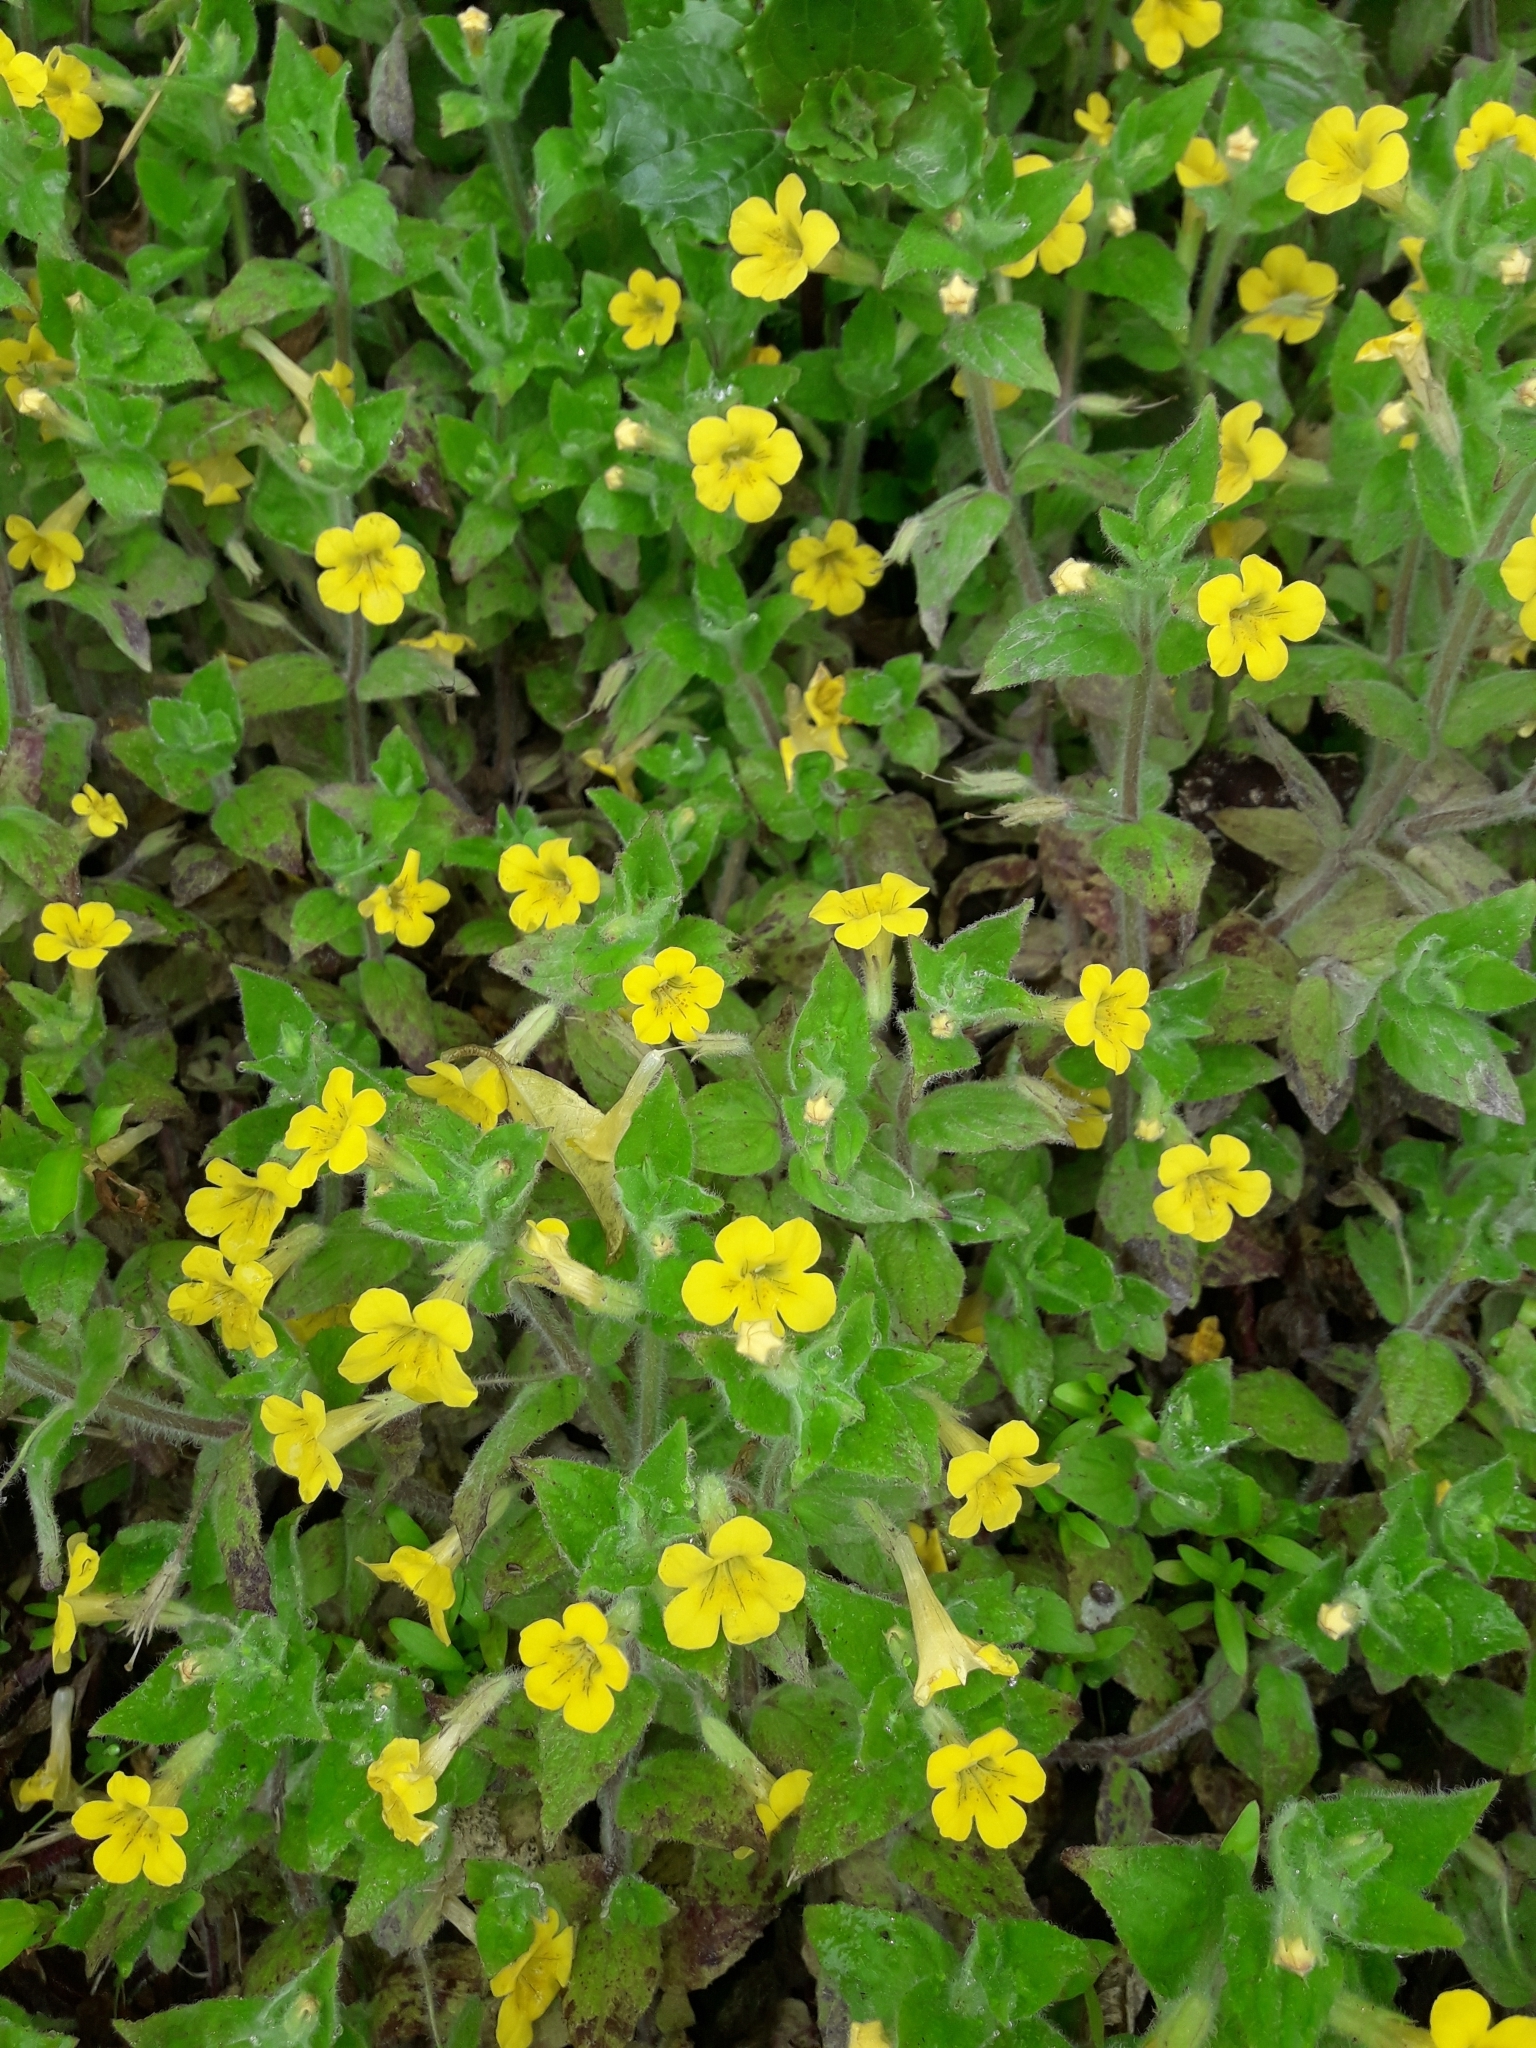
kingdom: Plantae
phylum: Tracheophyta
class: Magnoliopsida
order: Lamiales
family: Phrymaceae
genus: Erythranthe
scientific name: Erythranthe moschata
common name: Muskflower
